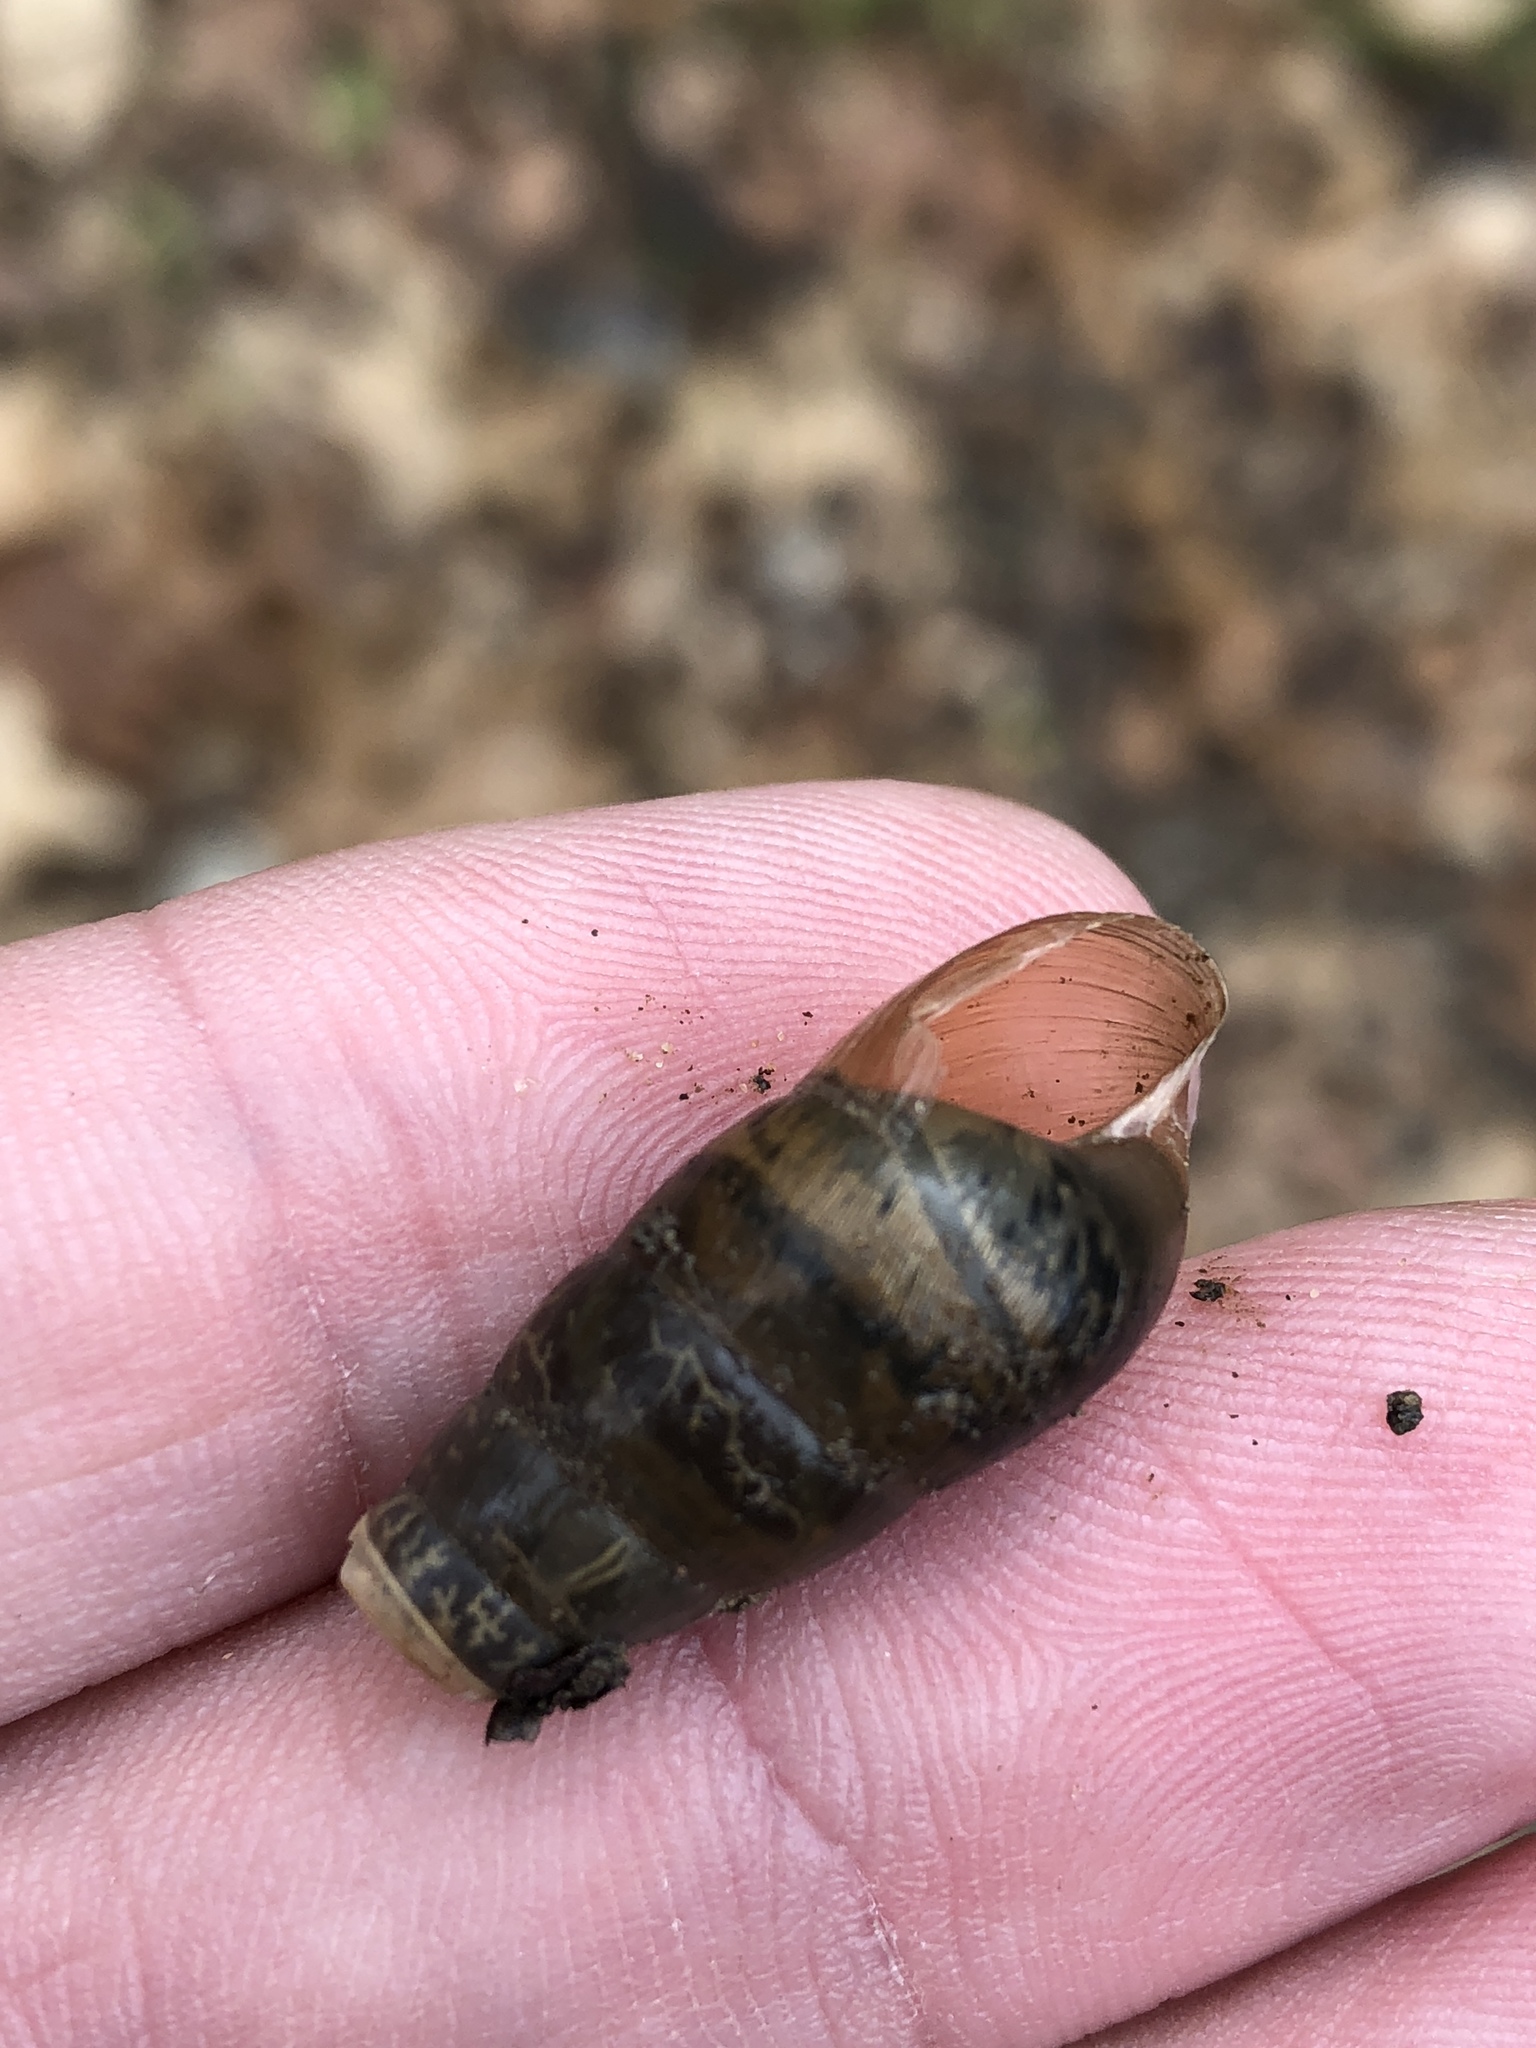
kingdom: Animalia
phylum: Mollusca
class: Gastropoda
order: Stylommatophora
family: Achatinidae
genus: Rumina
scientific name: Rumina decollata
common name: Decollate snail
